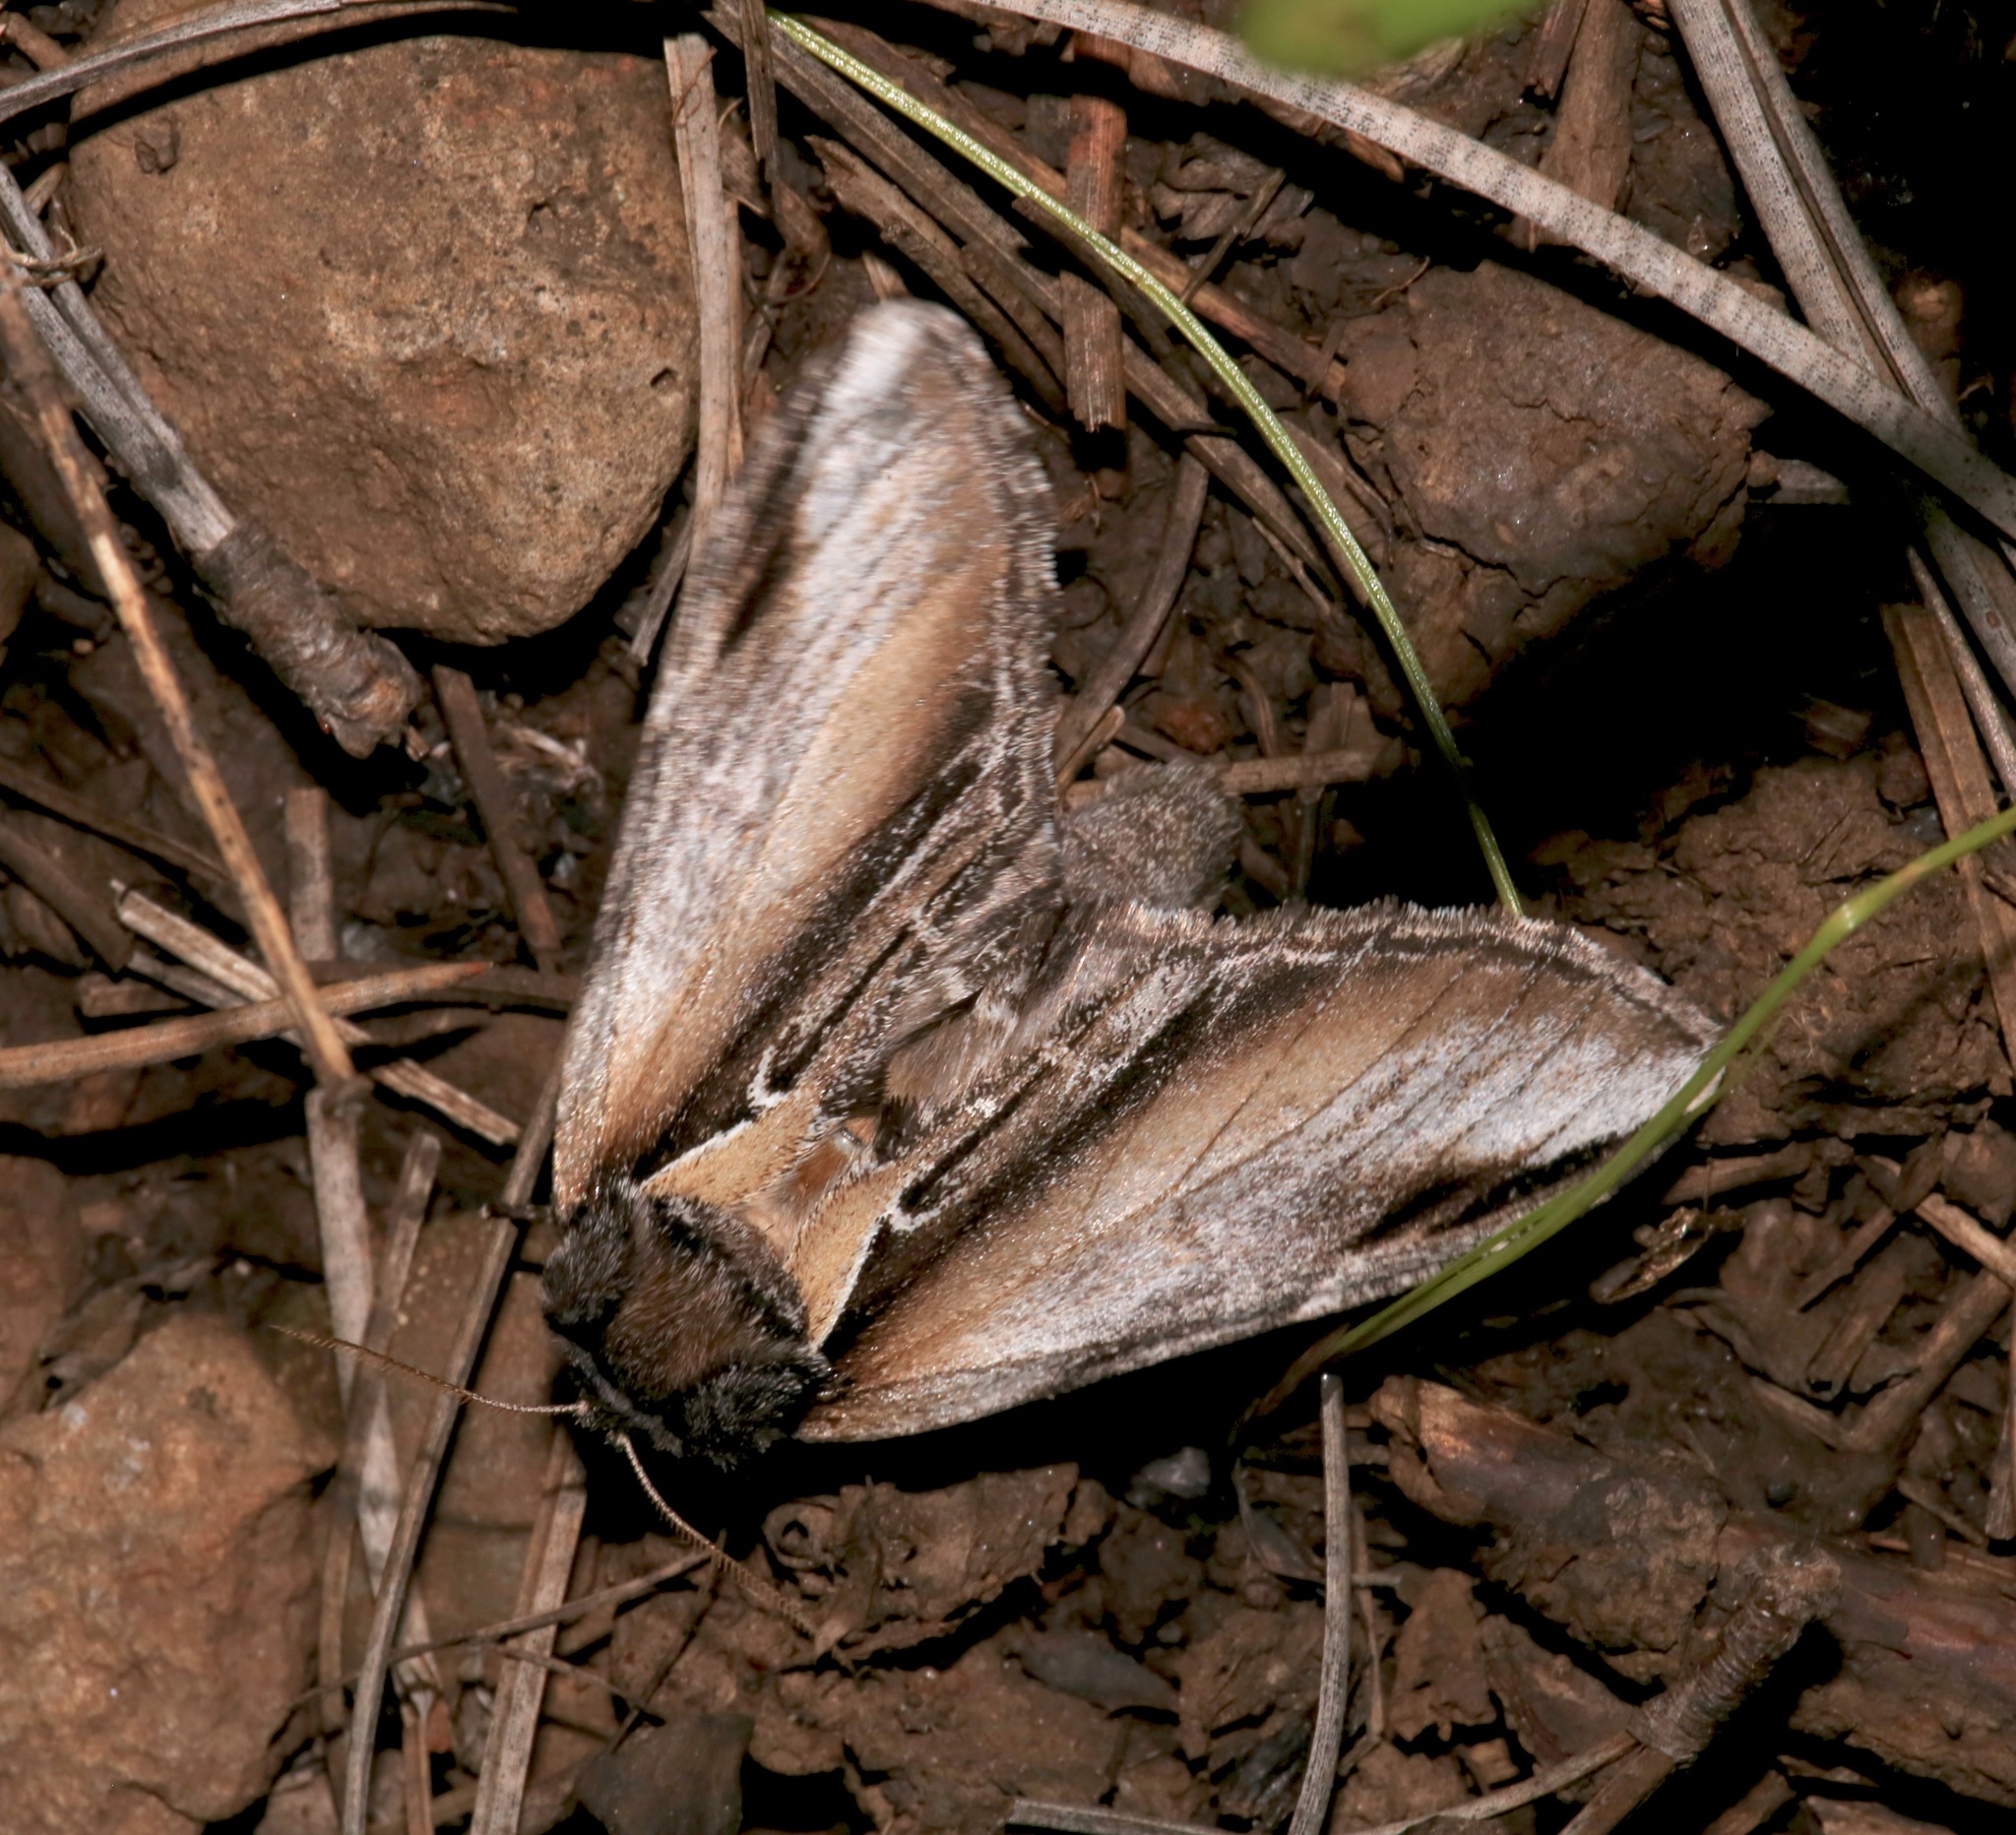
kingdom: Animalia
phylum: Arthropoda
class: Insecta
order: Lepidoptera
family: Notodontidae
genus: Pheosia
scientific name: Pheosia rimosa
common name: Black-rimmed prominent
